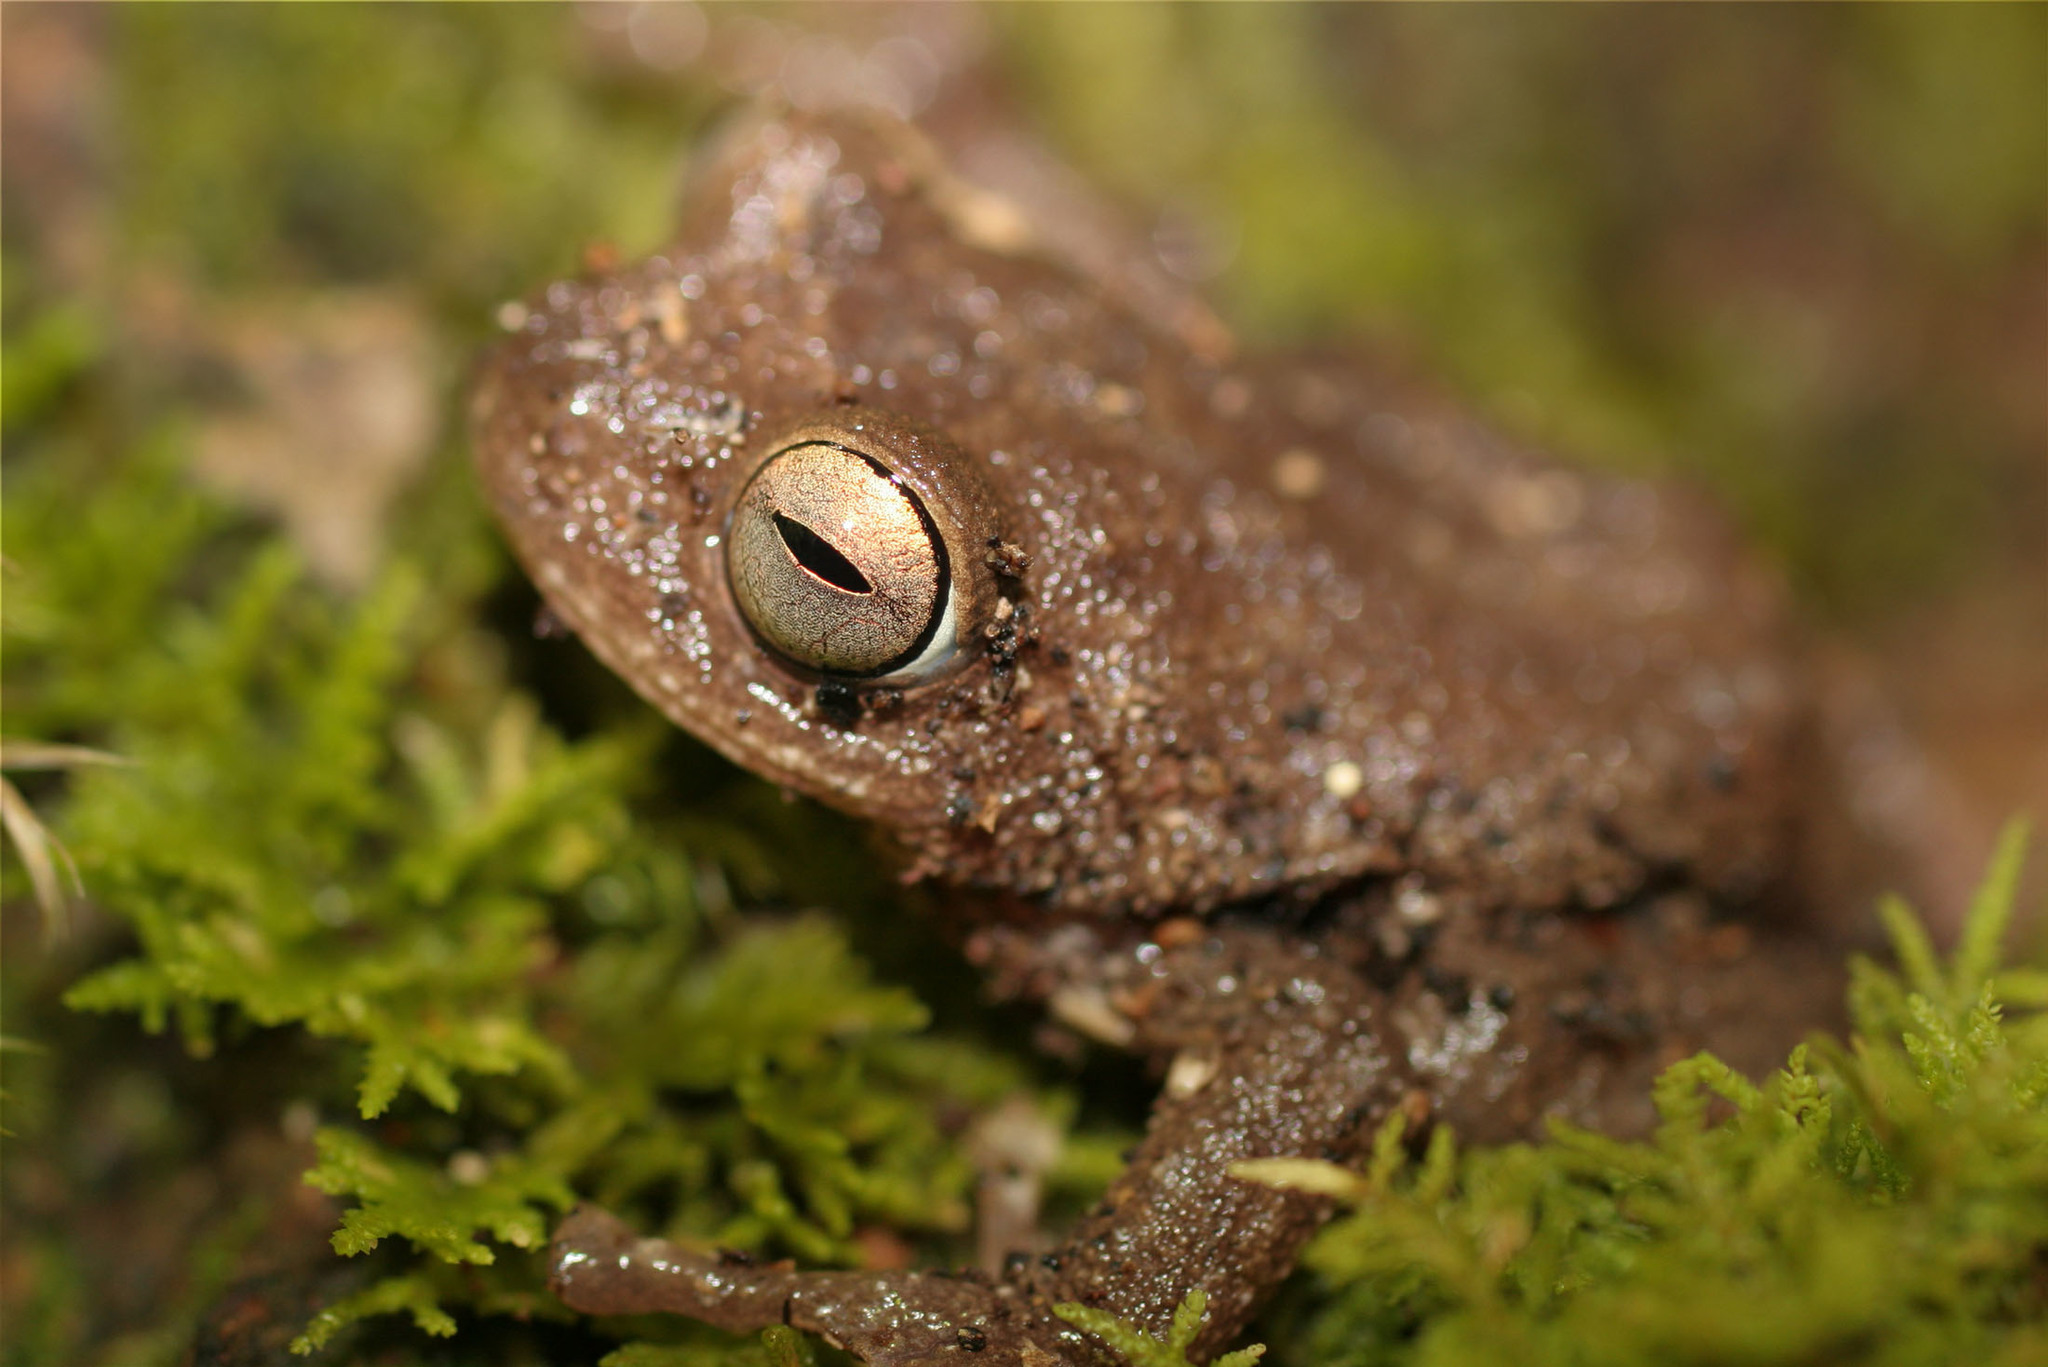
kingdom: Animalia
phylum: Chordata
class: Amphibia
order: Anura
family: Rhacophoridae
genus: Raorchestes
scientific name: Raorchestes ponmudi
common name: Large ponmudi bush frog
